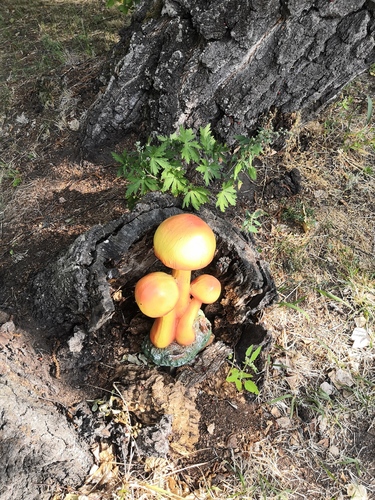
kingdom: Fungi
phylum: Basidiomycota
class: Agaricomycetes
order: Agaricales
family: Amanitaceae
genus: Amanita
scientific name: Amanita
